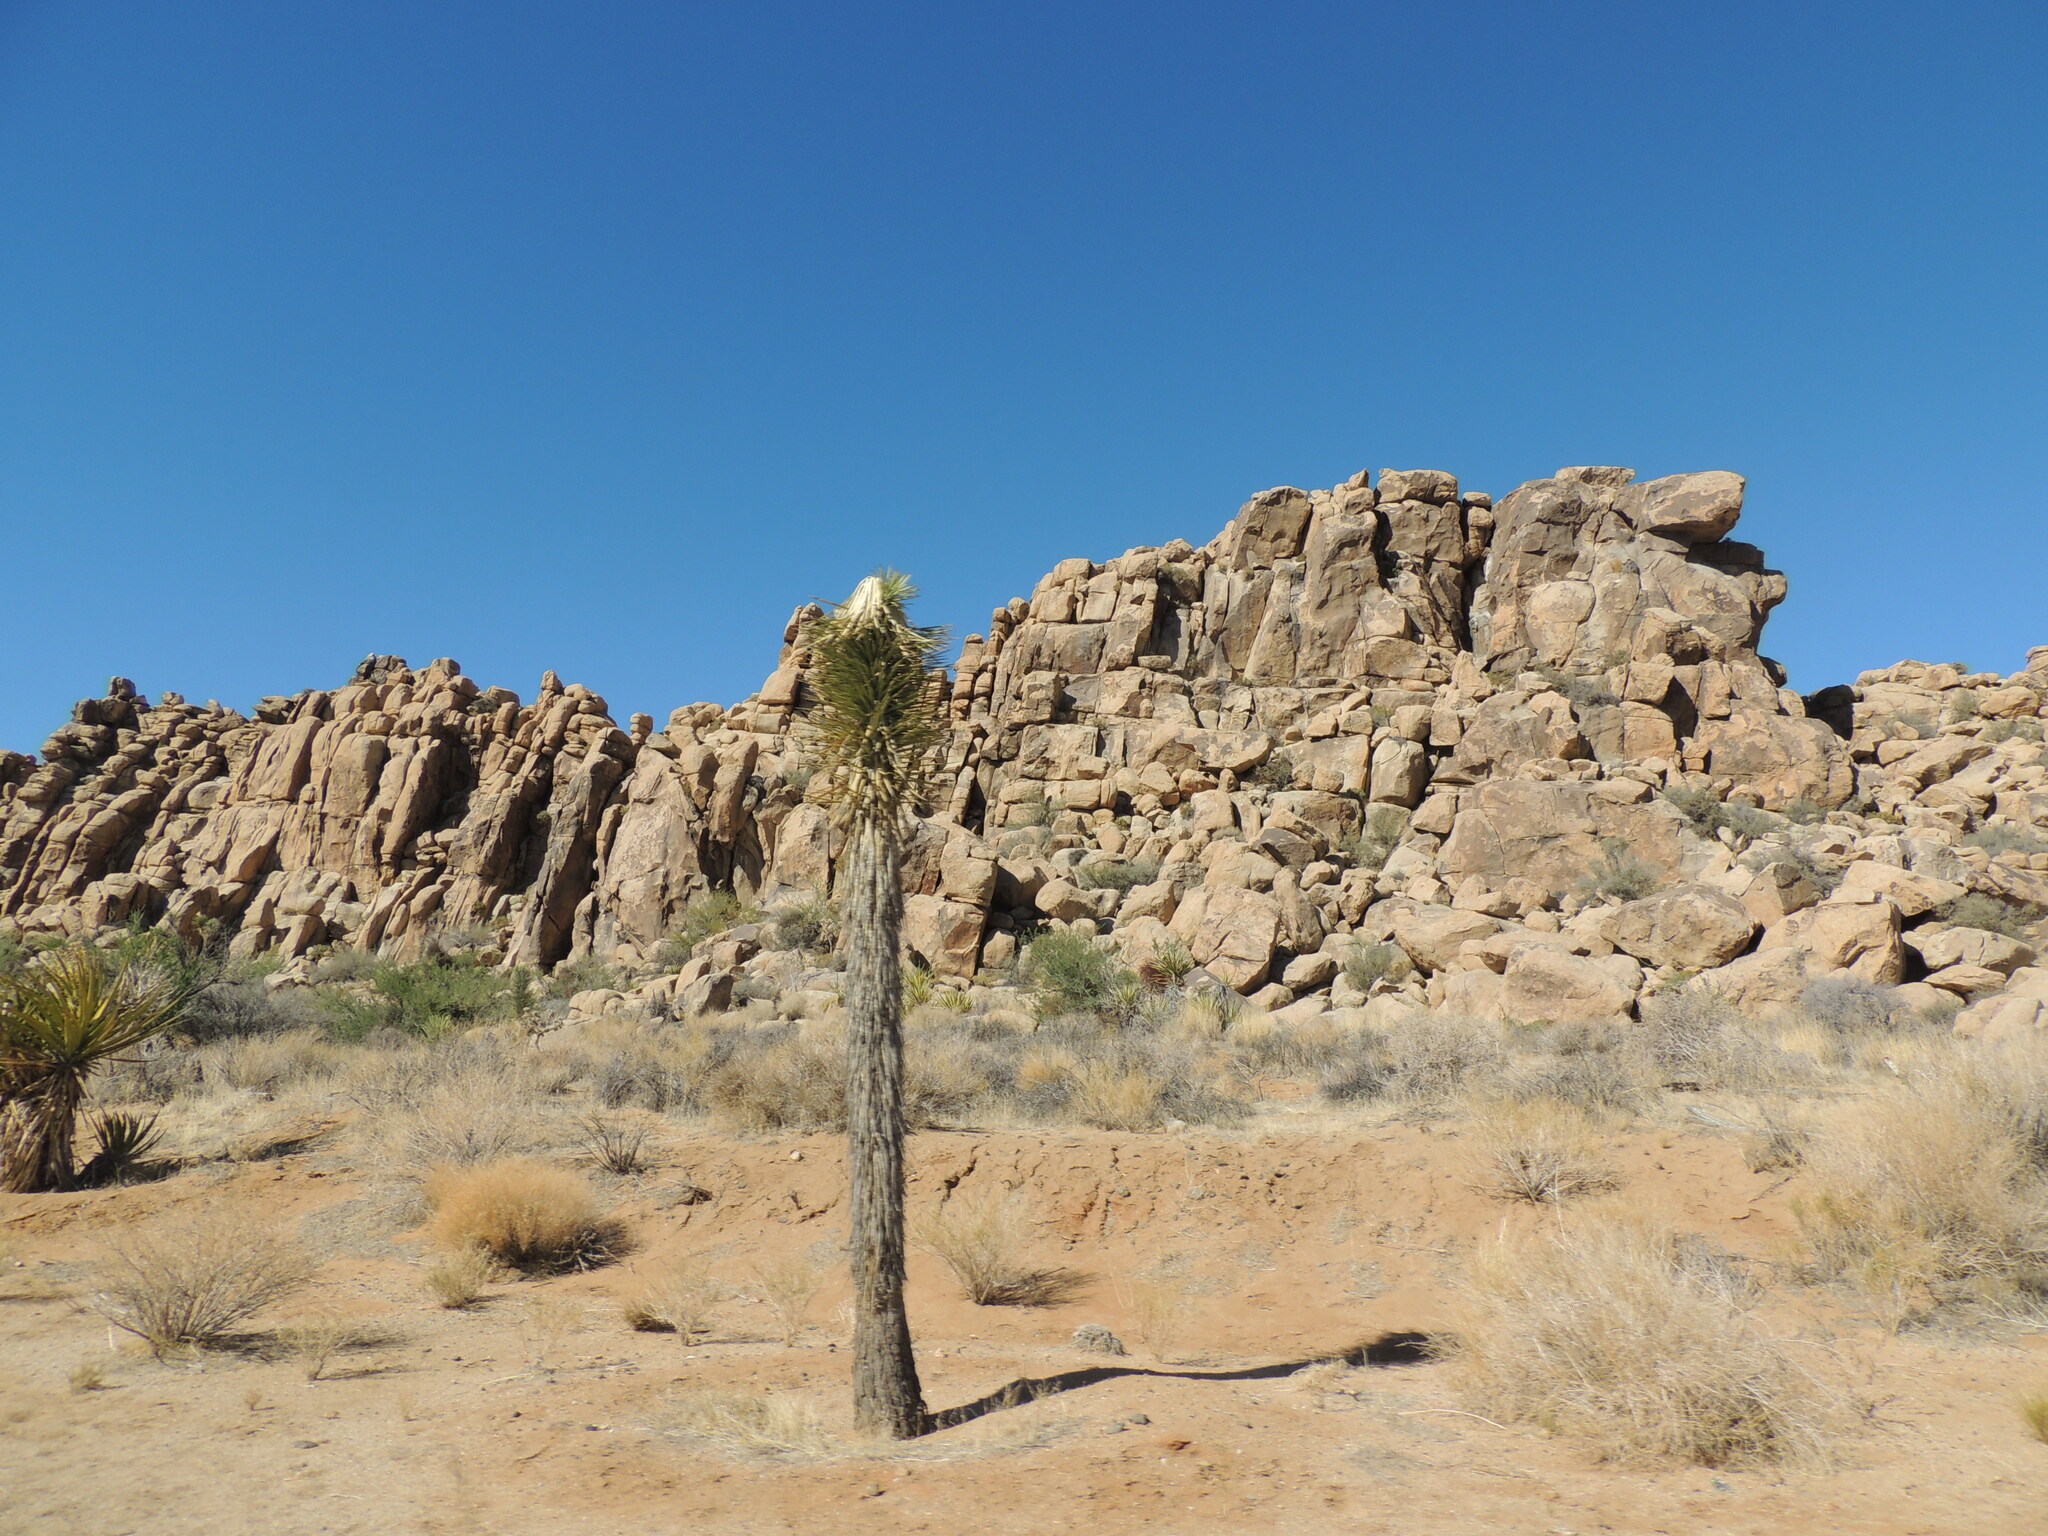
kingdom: Plantae
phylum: Tracheophyta
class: Liliopsida
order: Asparagales
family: Asparagaceae
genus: Yucca
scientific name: Yucca brevifolia
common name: Joshua tree
